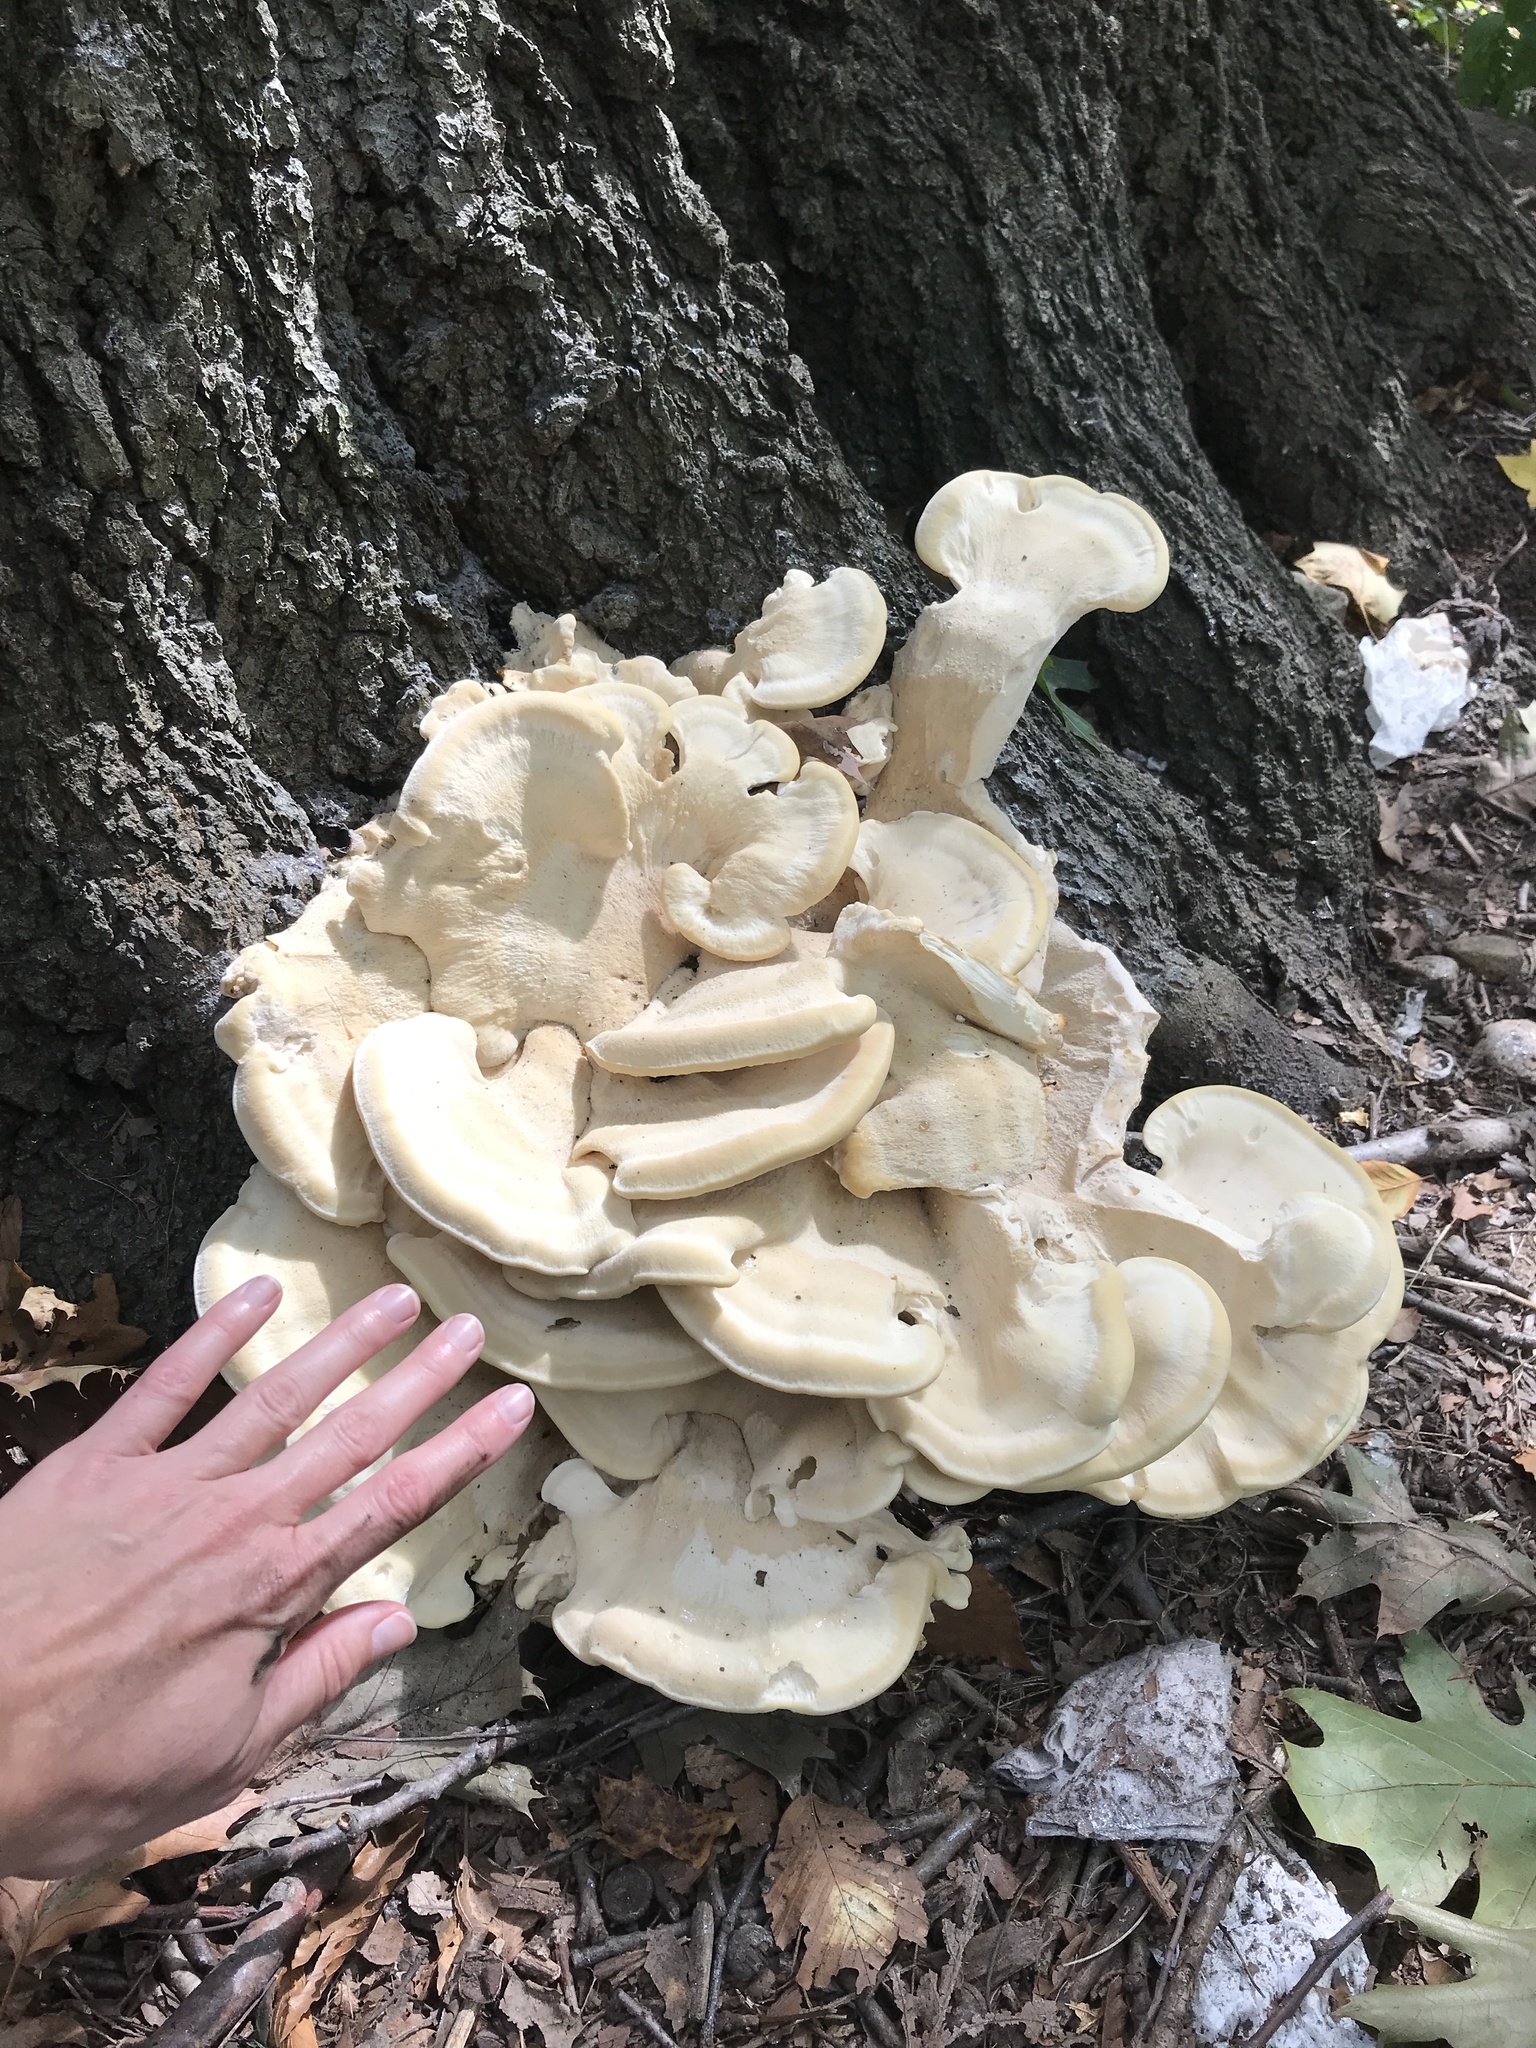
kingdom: Fungi
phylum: Basidiomycota
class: Agaricomycetes
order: Russulales
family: Bondarzewiaceae
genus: Bondarzewia
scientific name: Bondarzewia berkeleyi
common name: Berkeley's polypore
